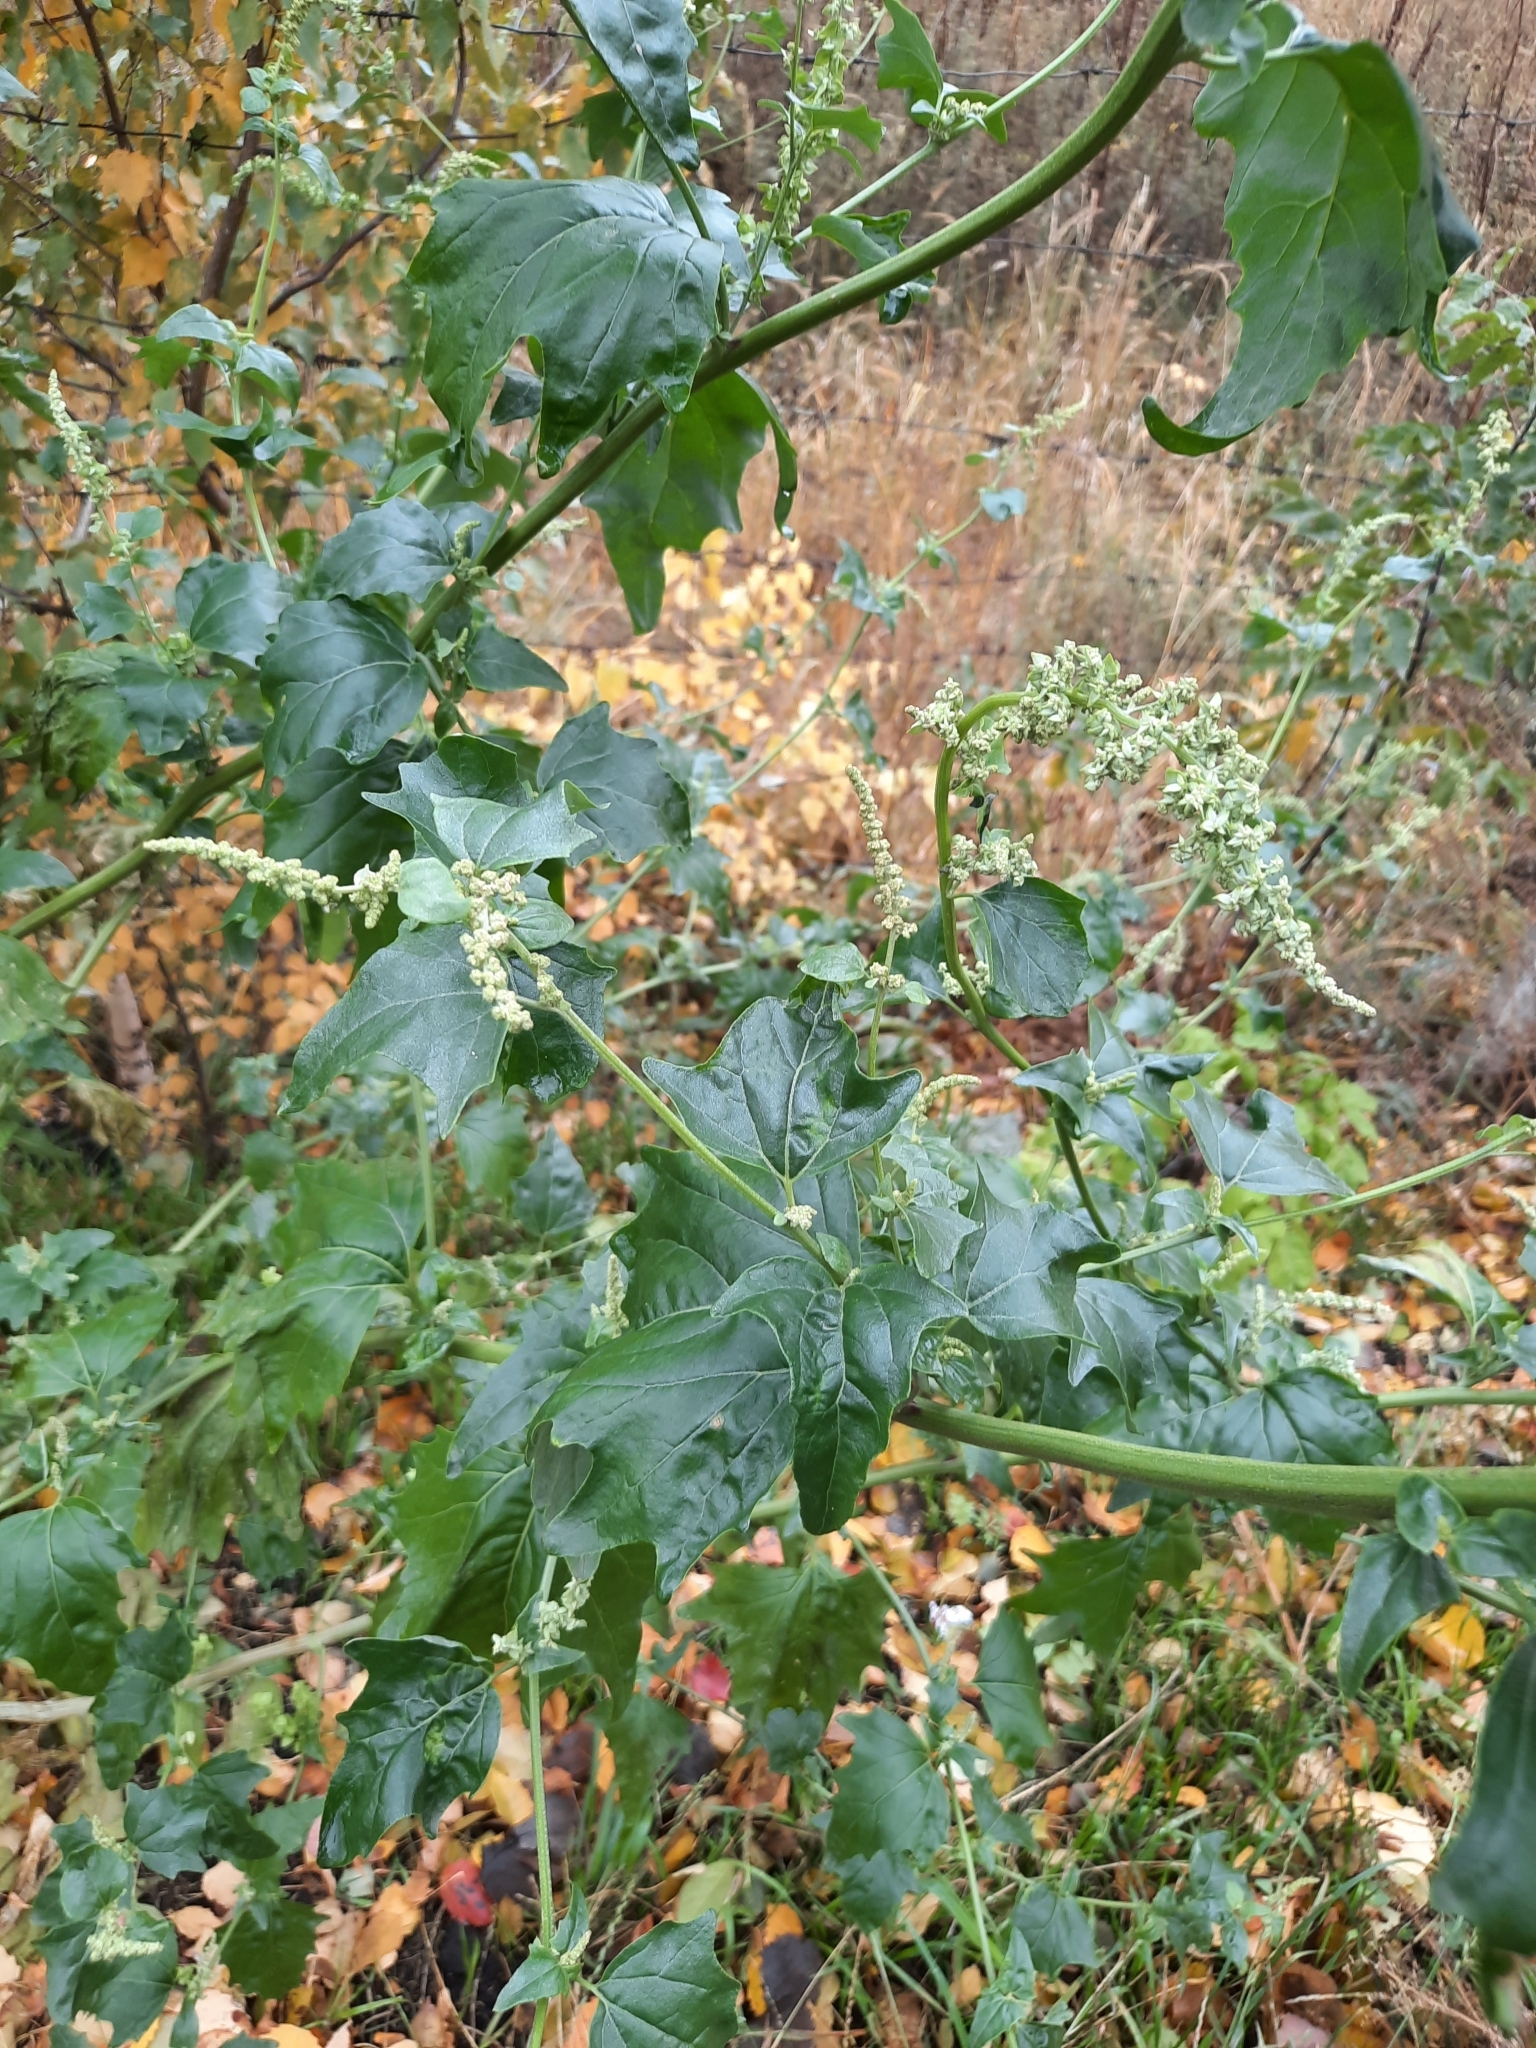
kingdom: Plantae
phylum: Tracheophyta
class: Magnoliopsida
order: Caryophyllales
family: Amaranthaceae
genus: Atriplex
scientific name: Atriplex sagittata
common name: Purple orache
